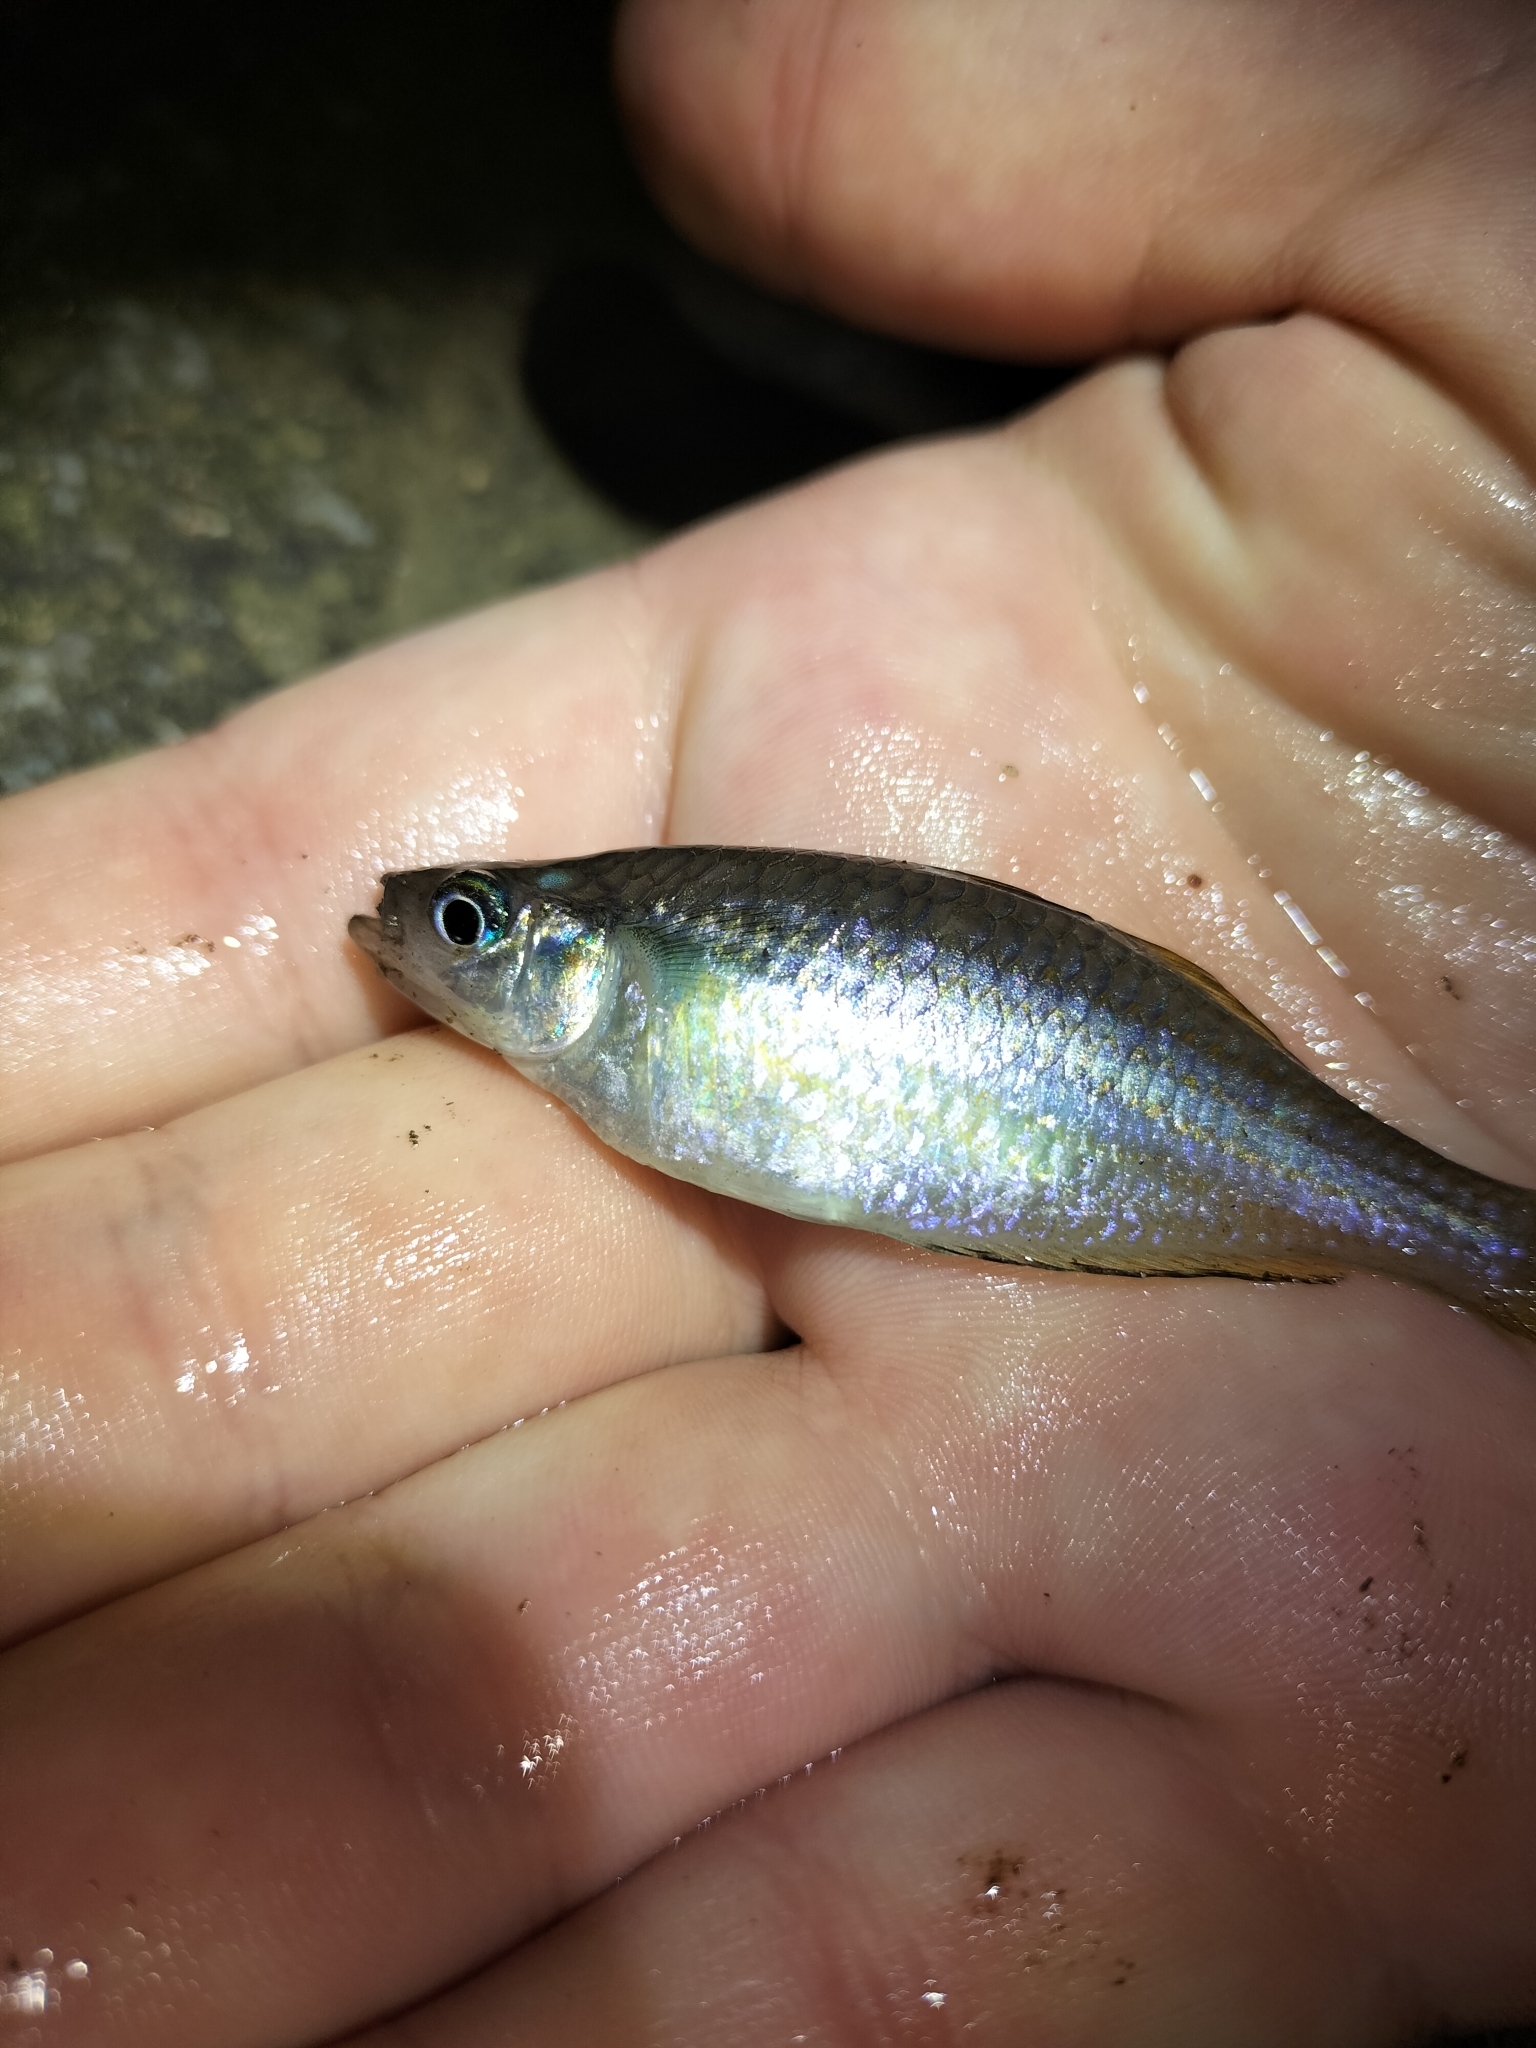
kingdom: Animalia
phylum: Chordata
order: Atheriniformes
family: Melanotaeniidae
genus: Melanotaenia
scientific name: Melanotaenia splendida
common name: Checkered rainbowfish
